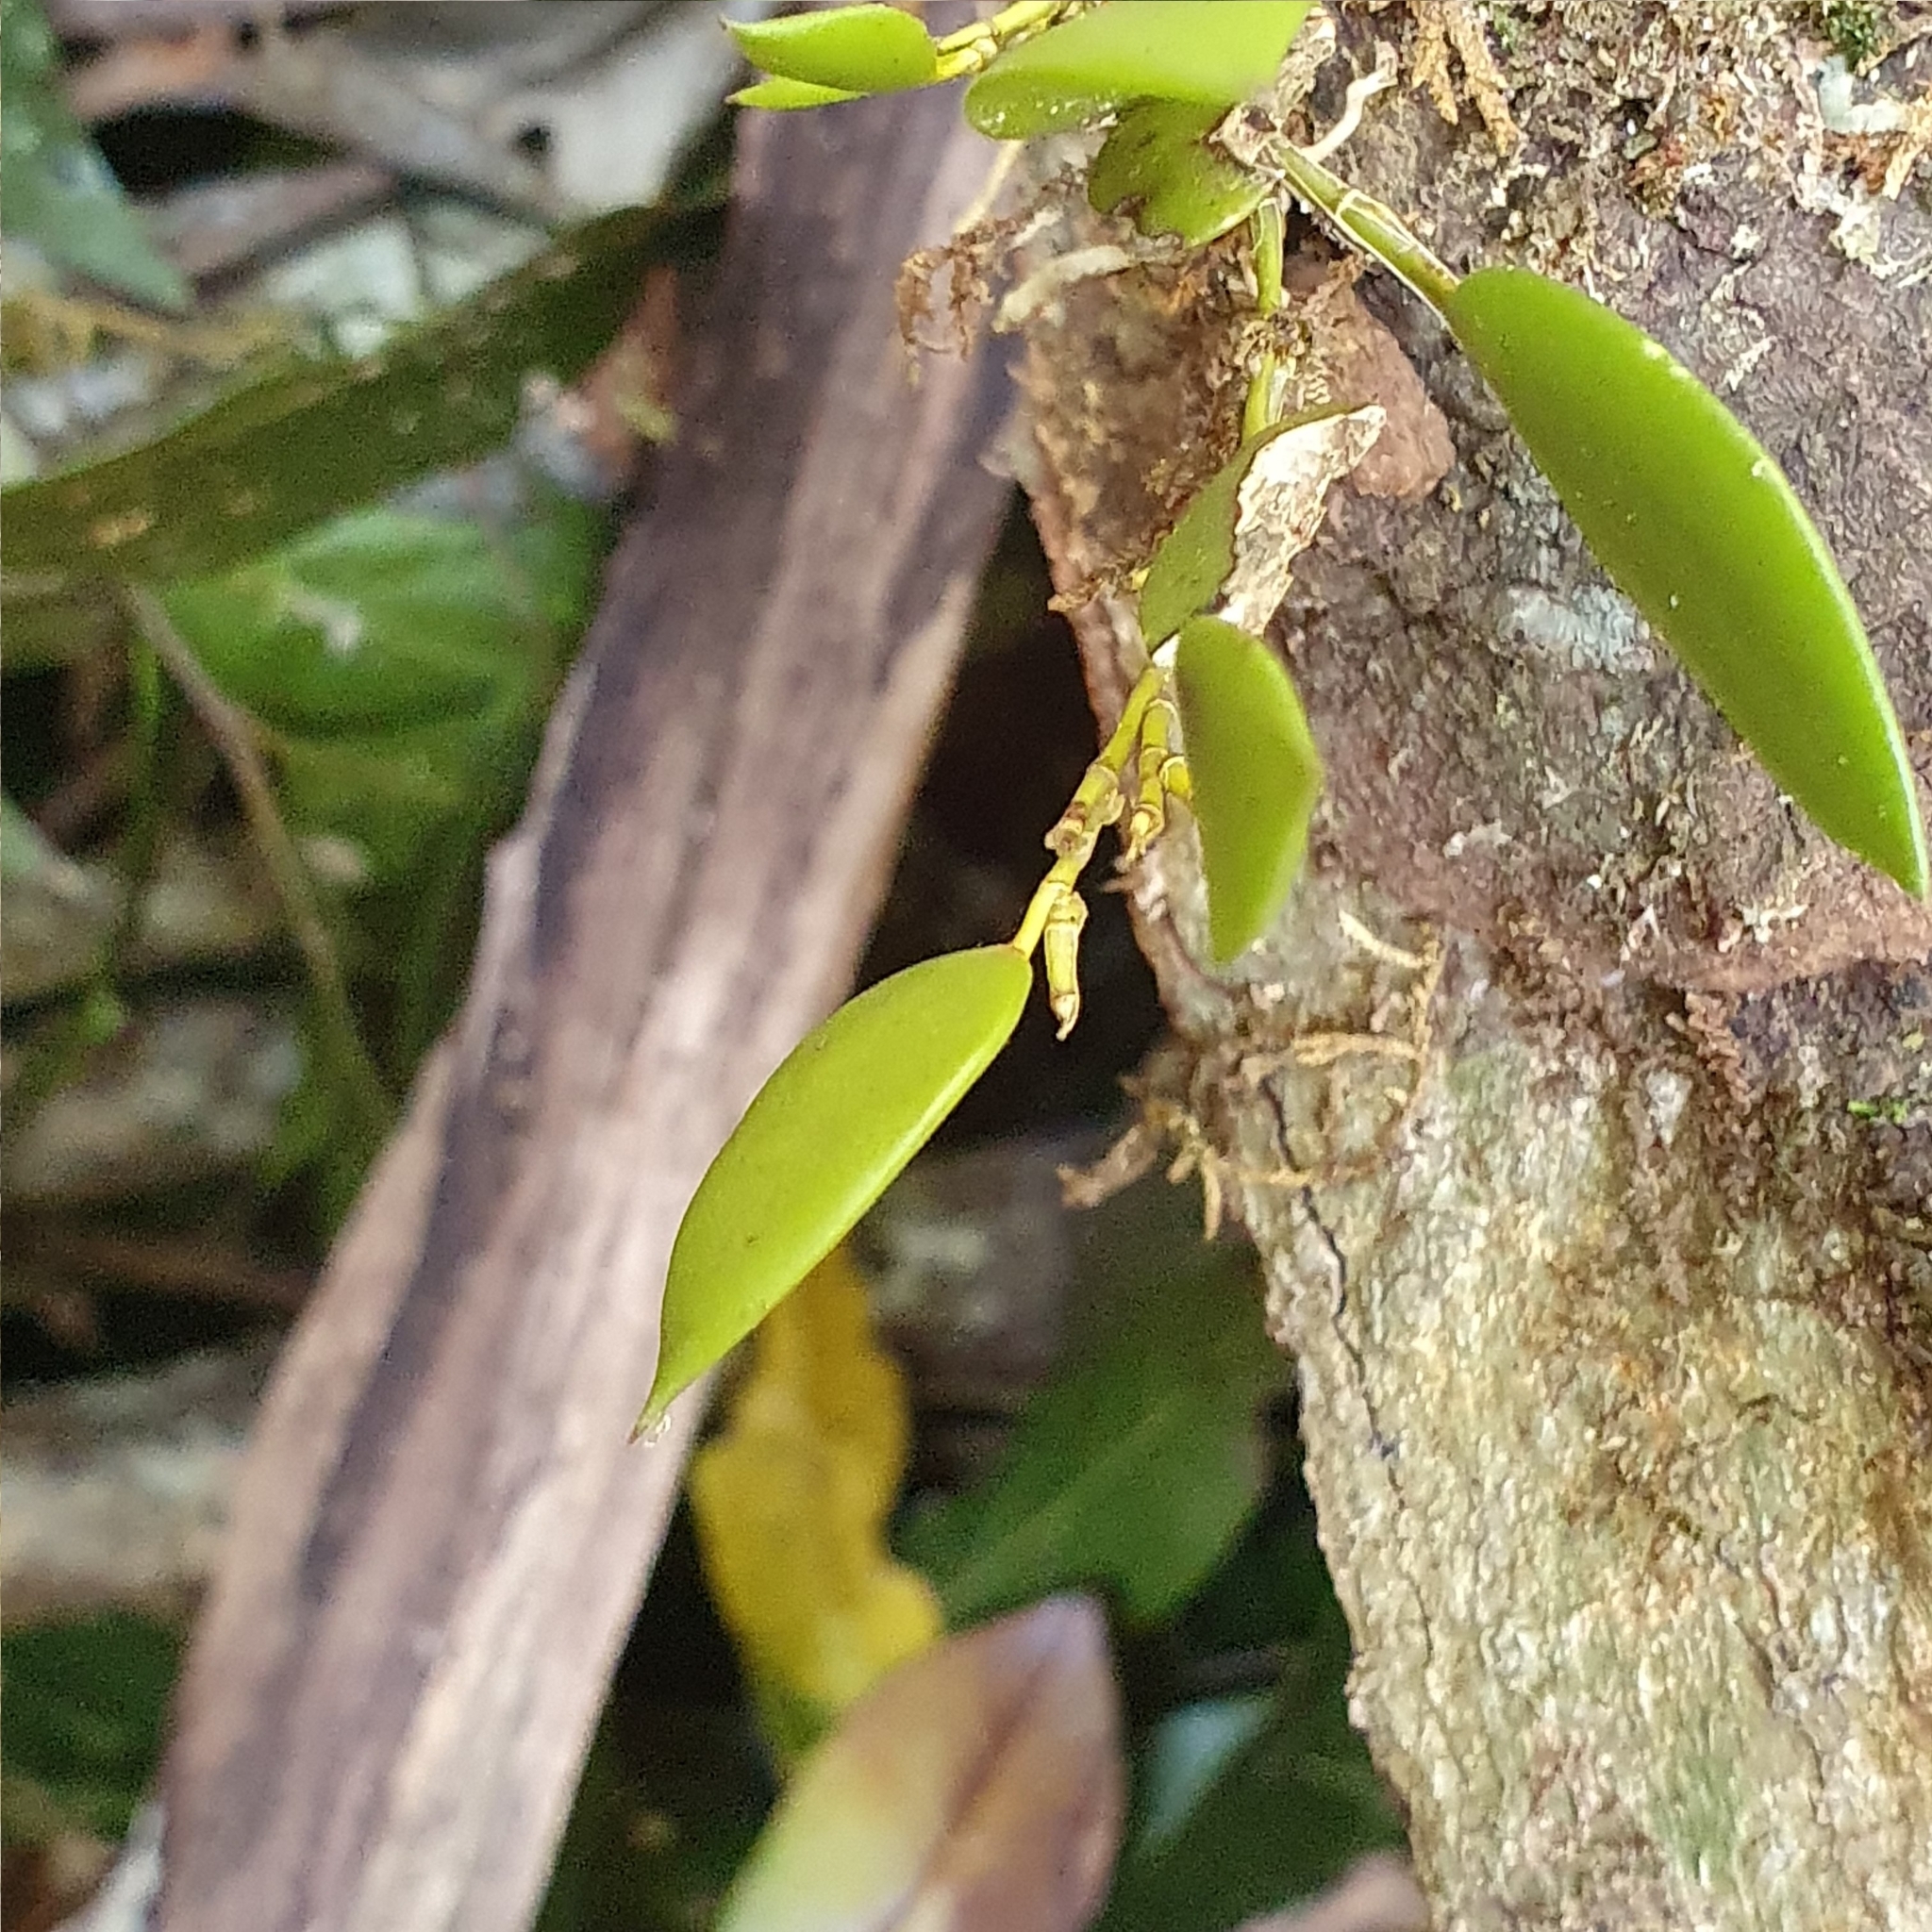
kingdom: Plantae
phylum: Tracheophyta
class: Liliopsida
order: Asparagales
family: Orchidaceae
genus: Dendrobium
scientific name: Dendrobium pugioniforme
